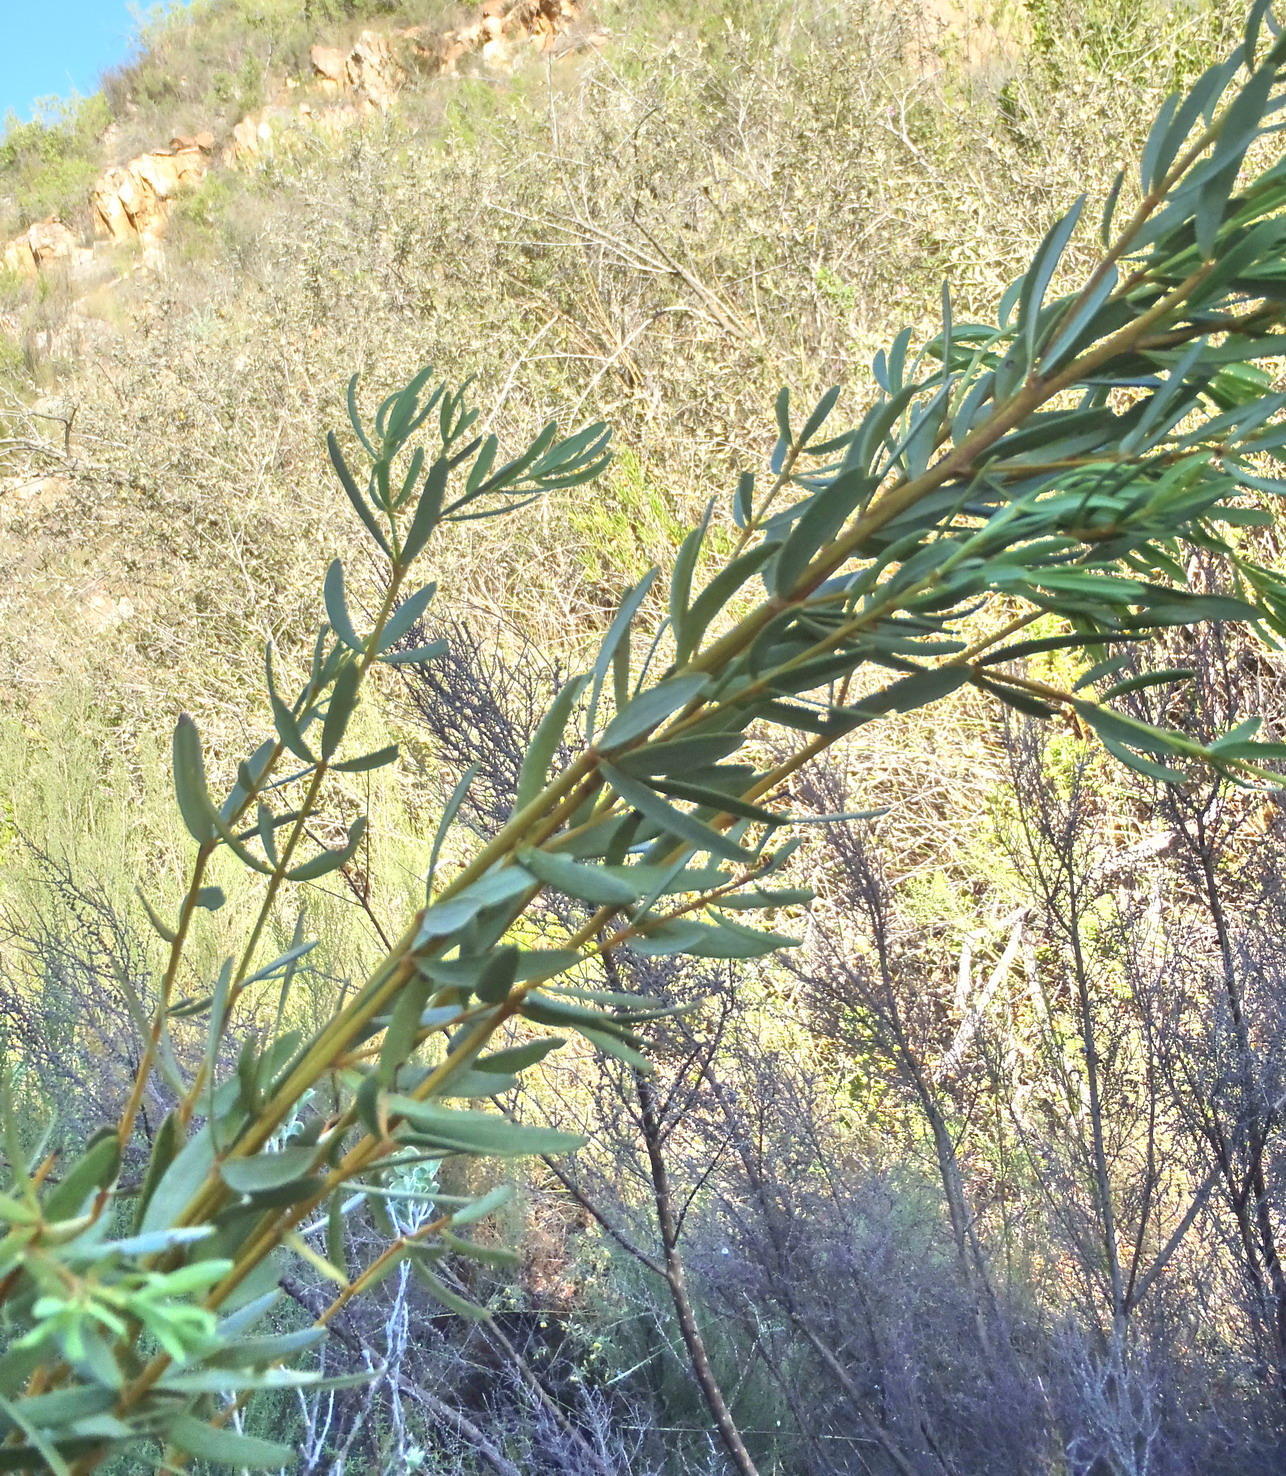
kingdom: Plantae
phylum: Tracheophyta
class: Magnoliopsida
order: Fabales
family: Fabaceae
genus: Cyclopia
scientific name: Cyclopia intermedia
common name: Mountain tea
